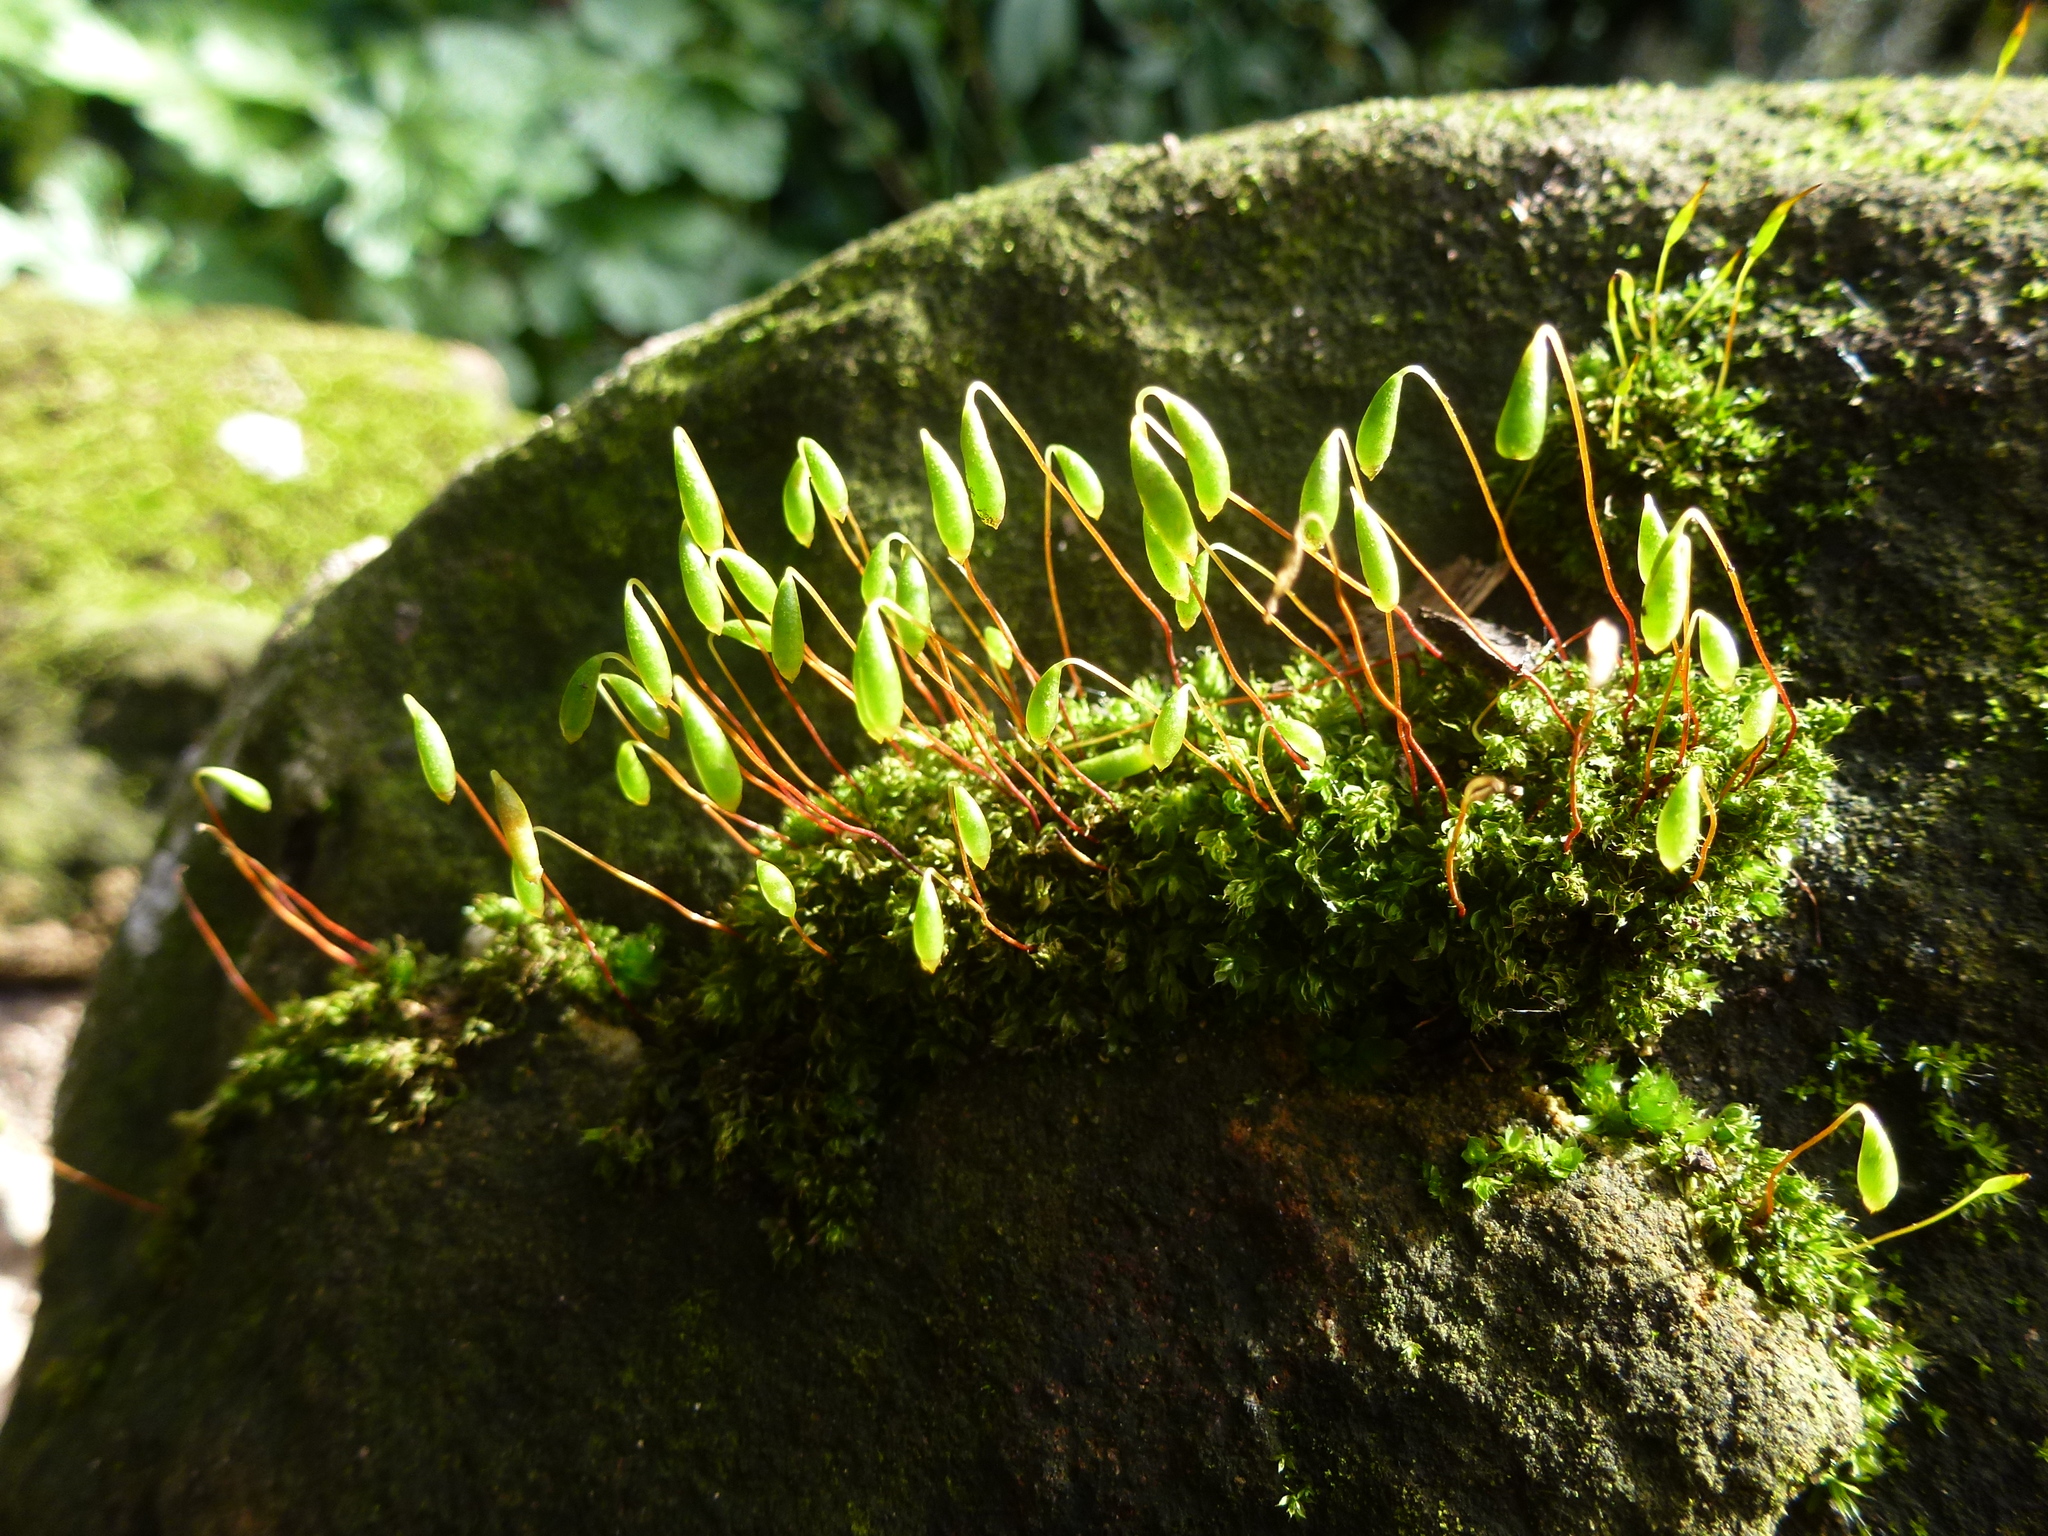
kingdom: Plantae
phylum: Bryophyta
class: Bryopsida
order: Bryales
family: Bryaceae
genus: Rosulabryum
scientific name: Rosulabryum capillare
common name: Capillary thread-moss
